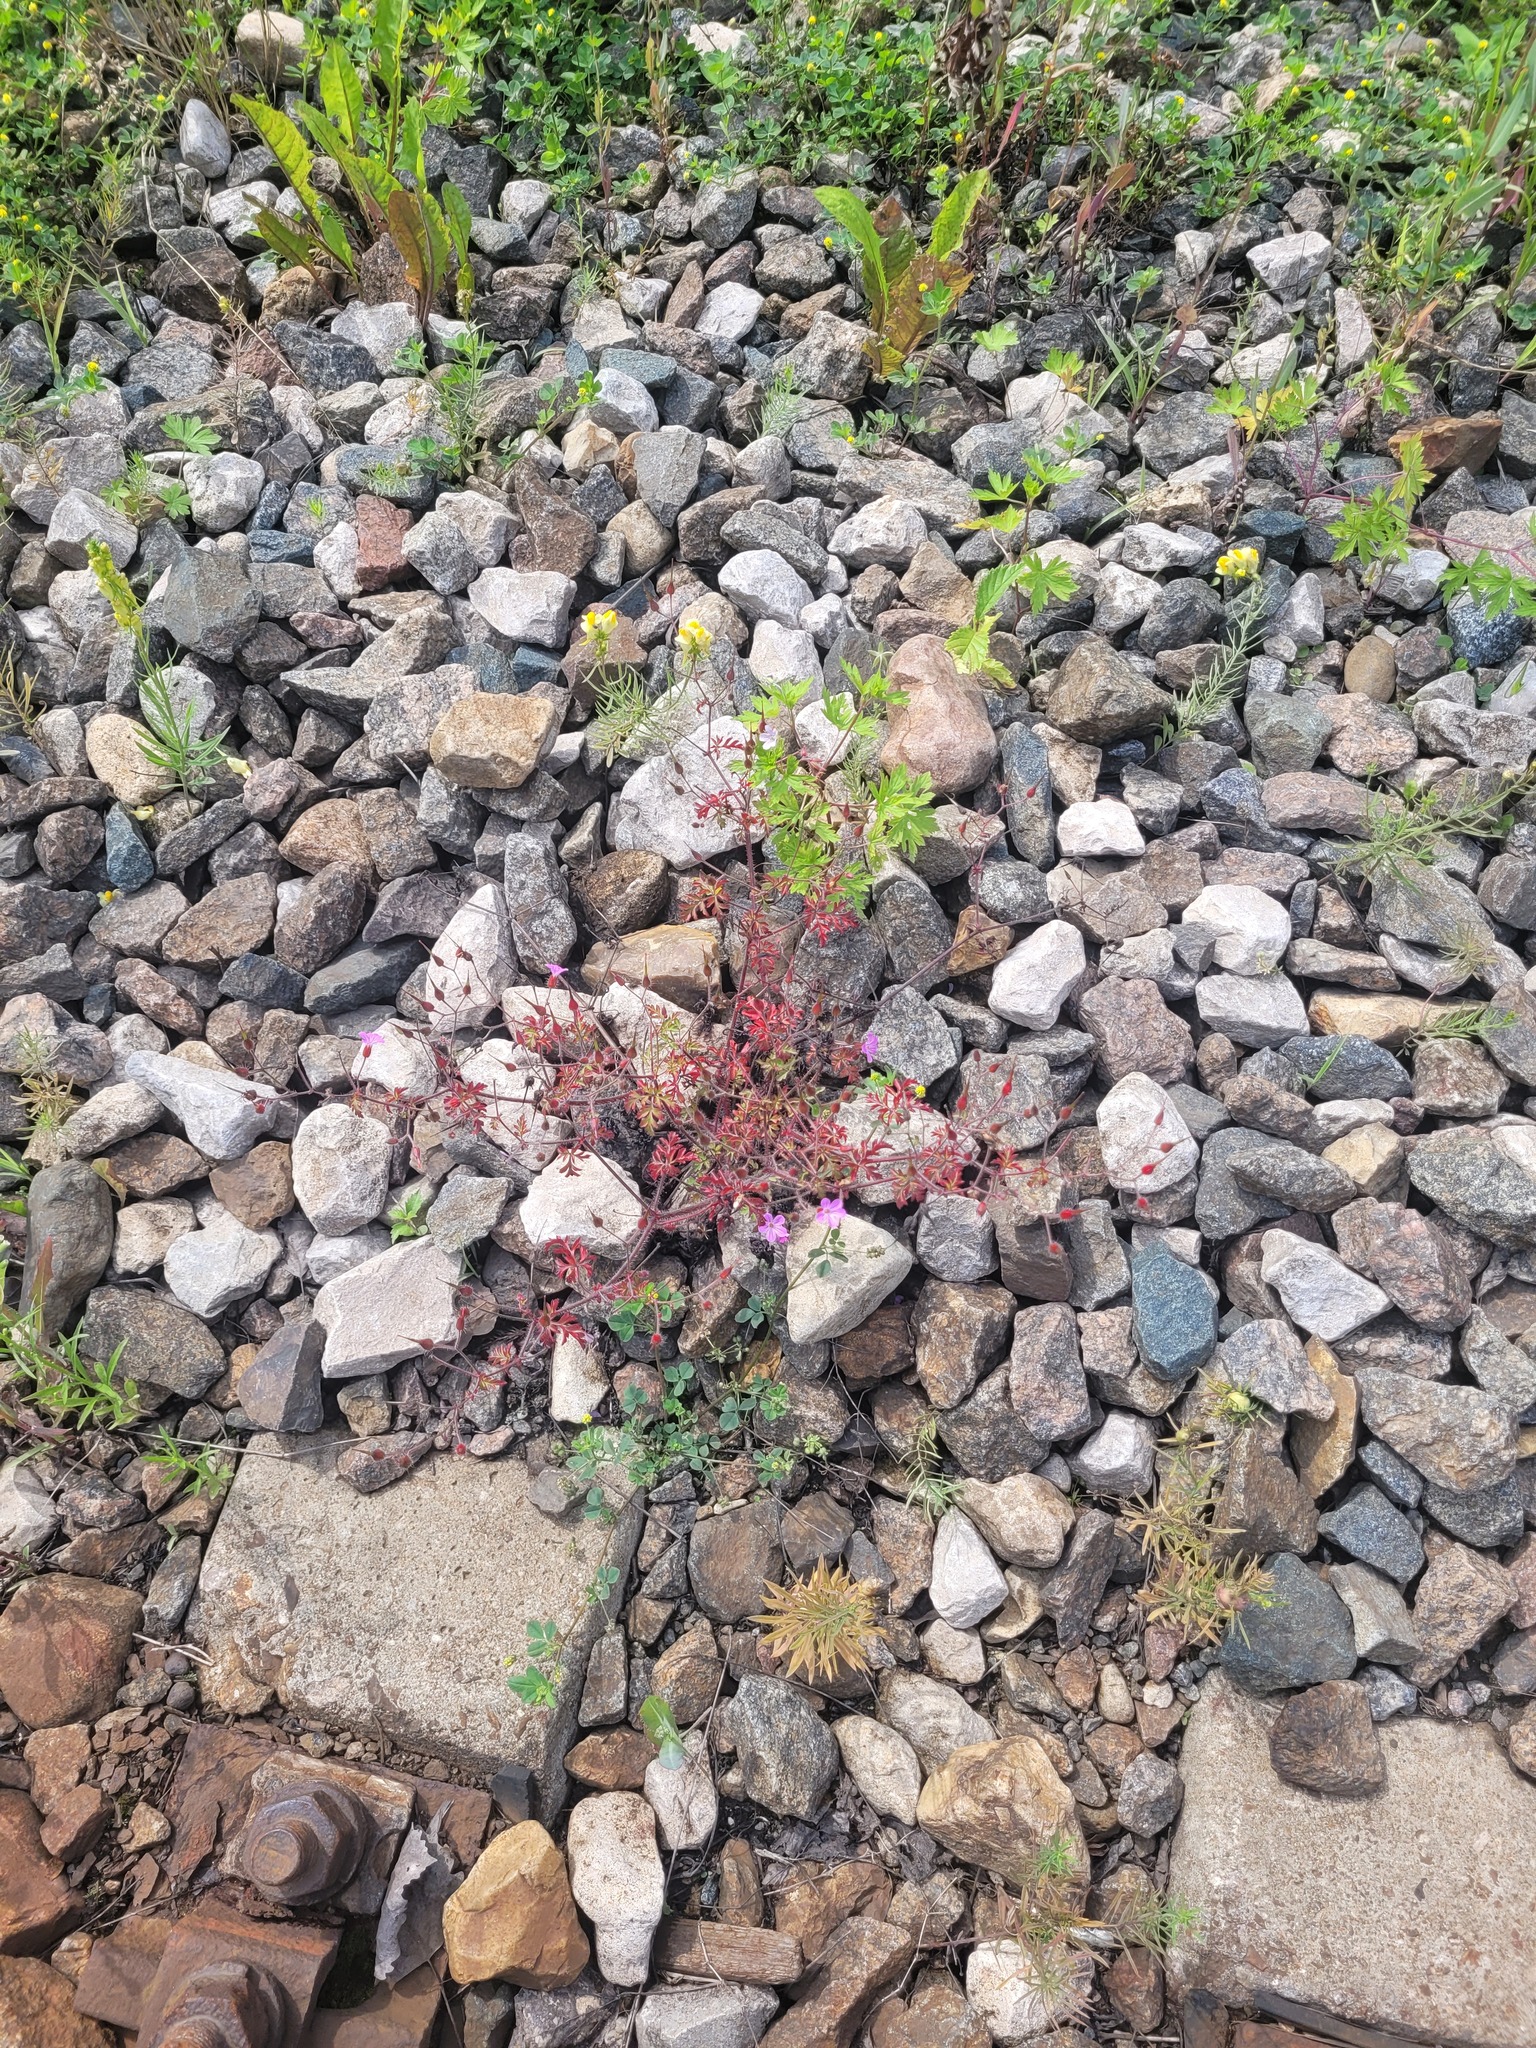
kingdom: Plantae
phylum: Tracheophyta
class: Magnoliopsida
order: Geraniales
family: Geraniaceae
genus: Geranium
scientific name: Geranium robertianum
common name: Herb-robert
